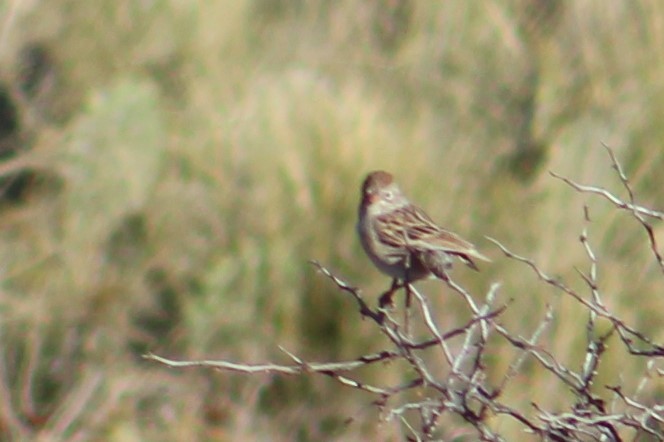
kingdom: Animalia
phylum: Chordata
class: Aves
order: Passeriformes
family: Passerellidae
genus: Spizella
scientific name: Spizella wortheni
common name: Worthen's sparrow
